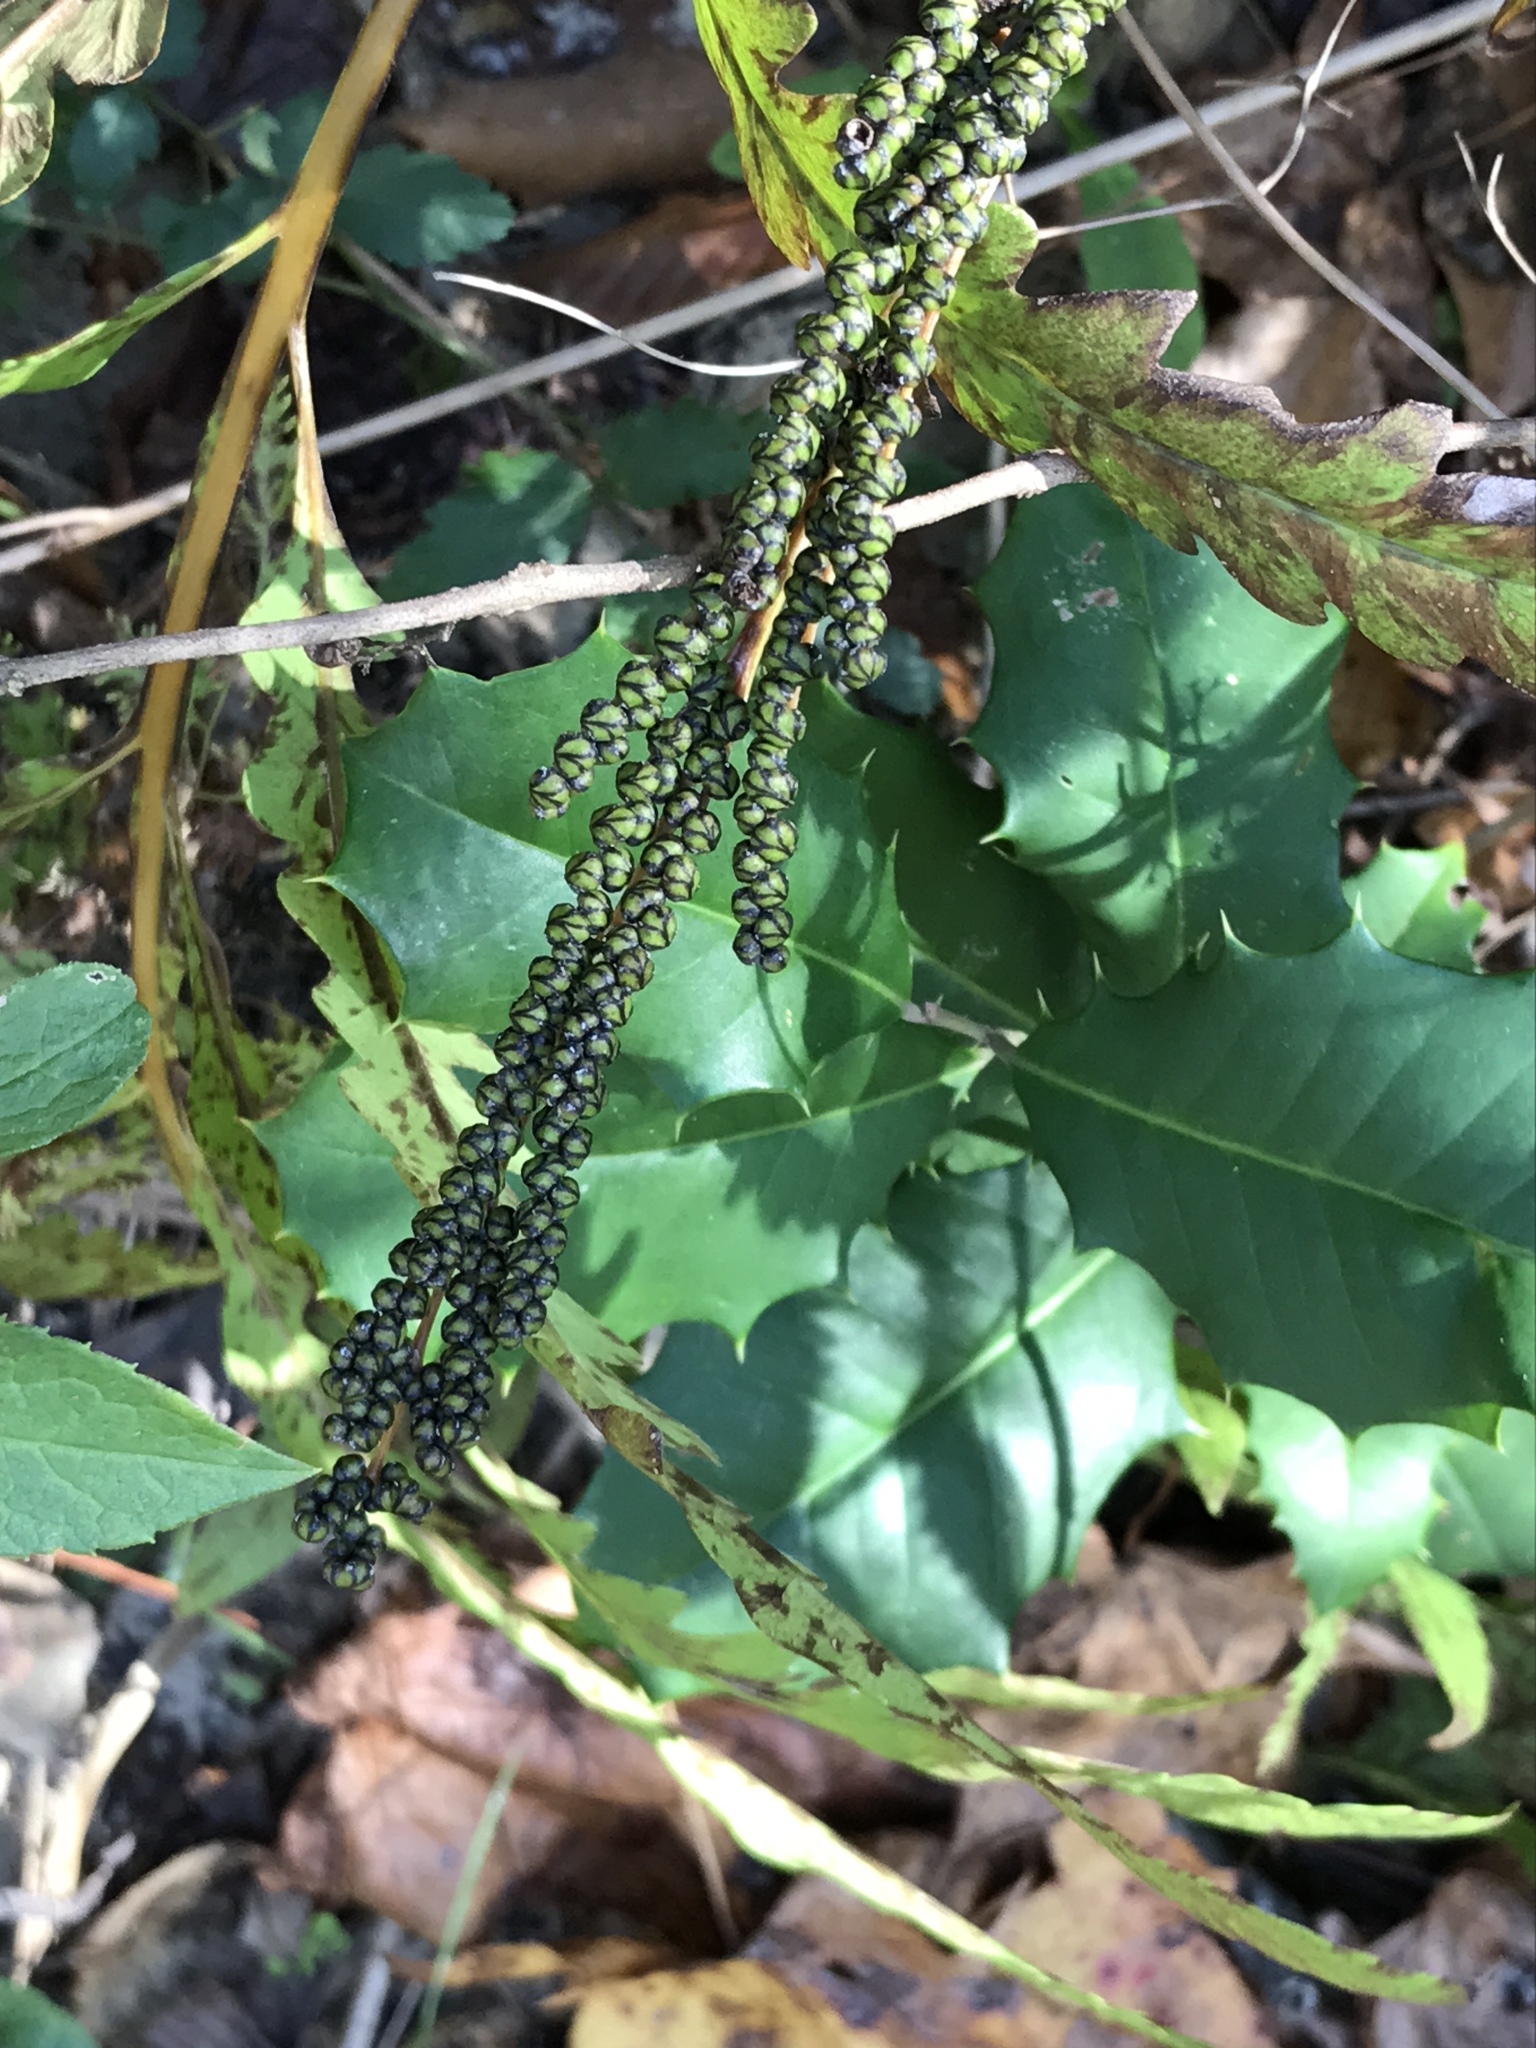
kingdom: Plantae
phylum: Tracheophyta
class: Polypodiopsida
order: Polypodiales
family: Onocleaceae
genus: Onoclea
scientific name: Onoclea sensibilis
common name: Sensitive fern
